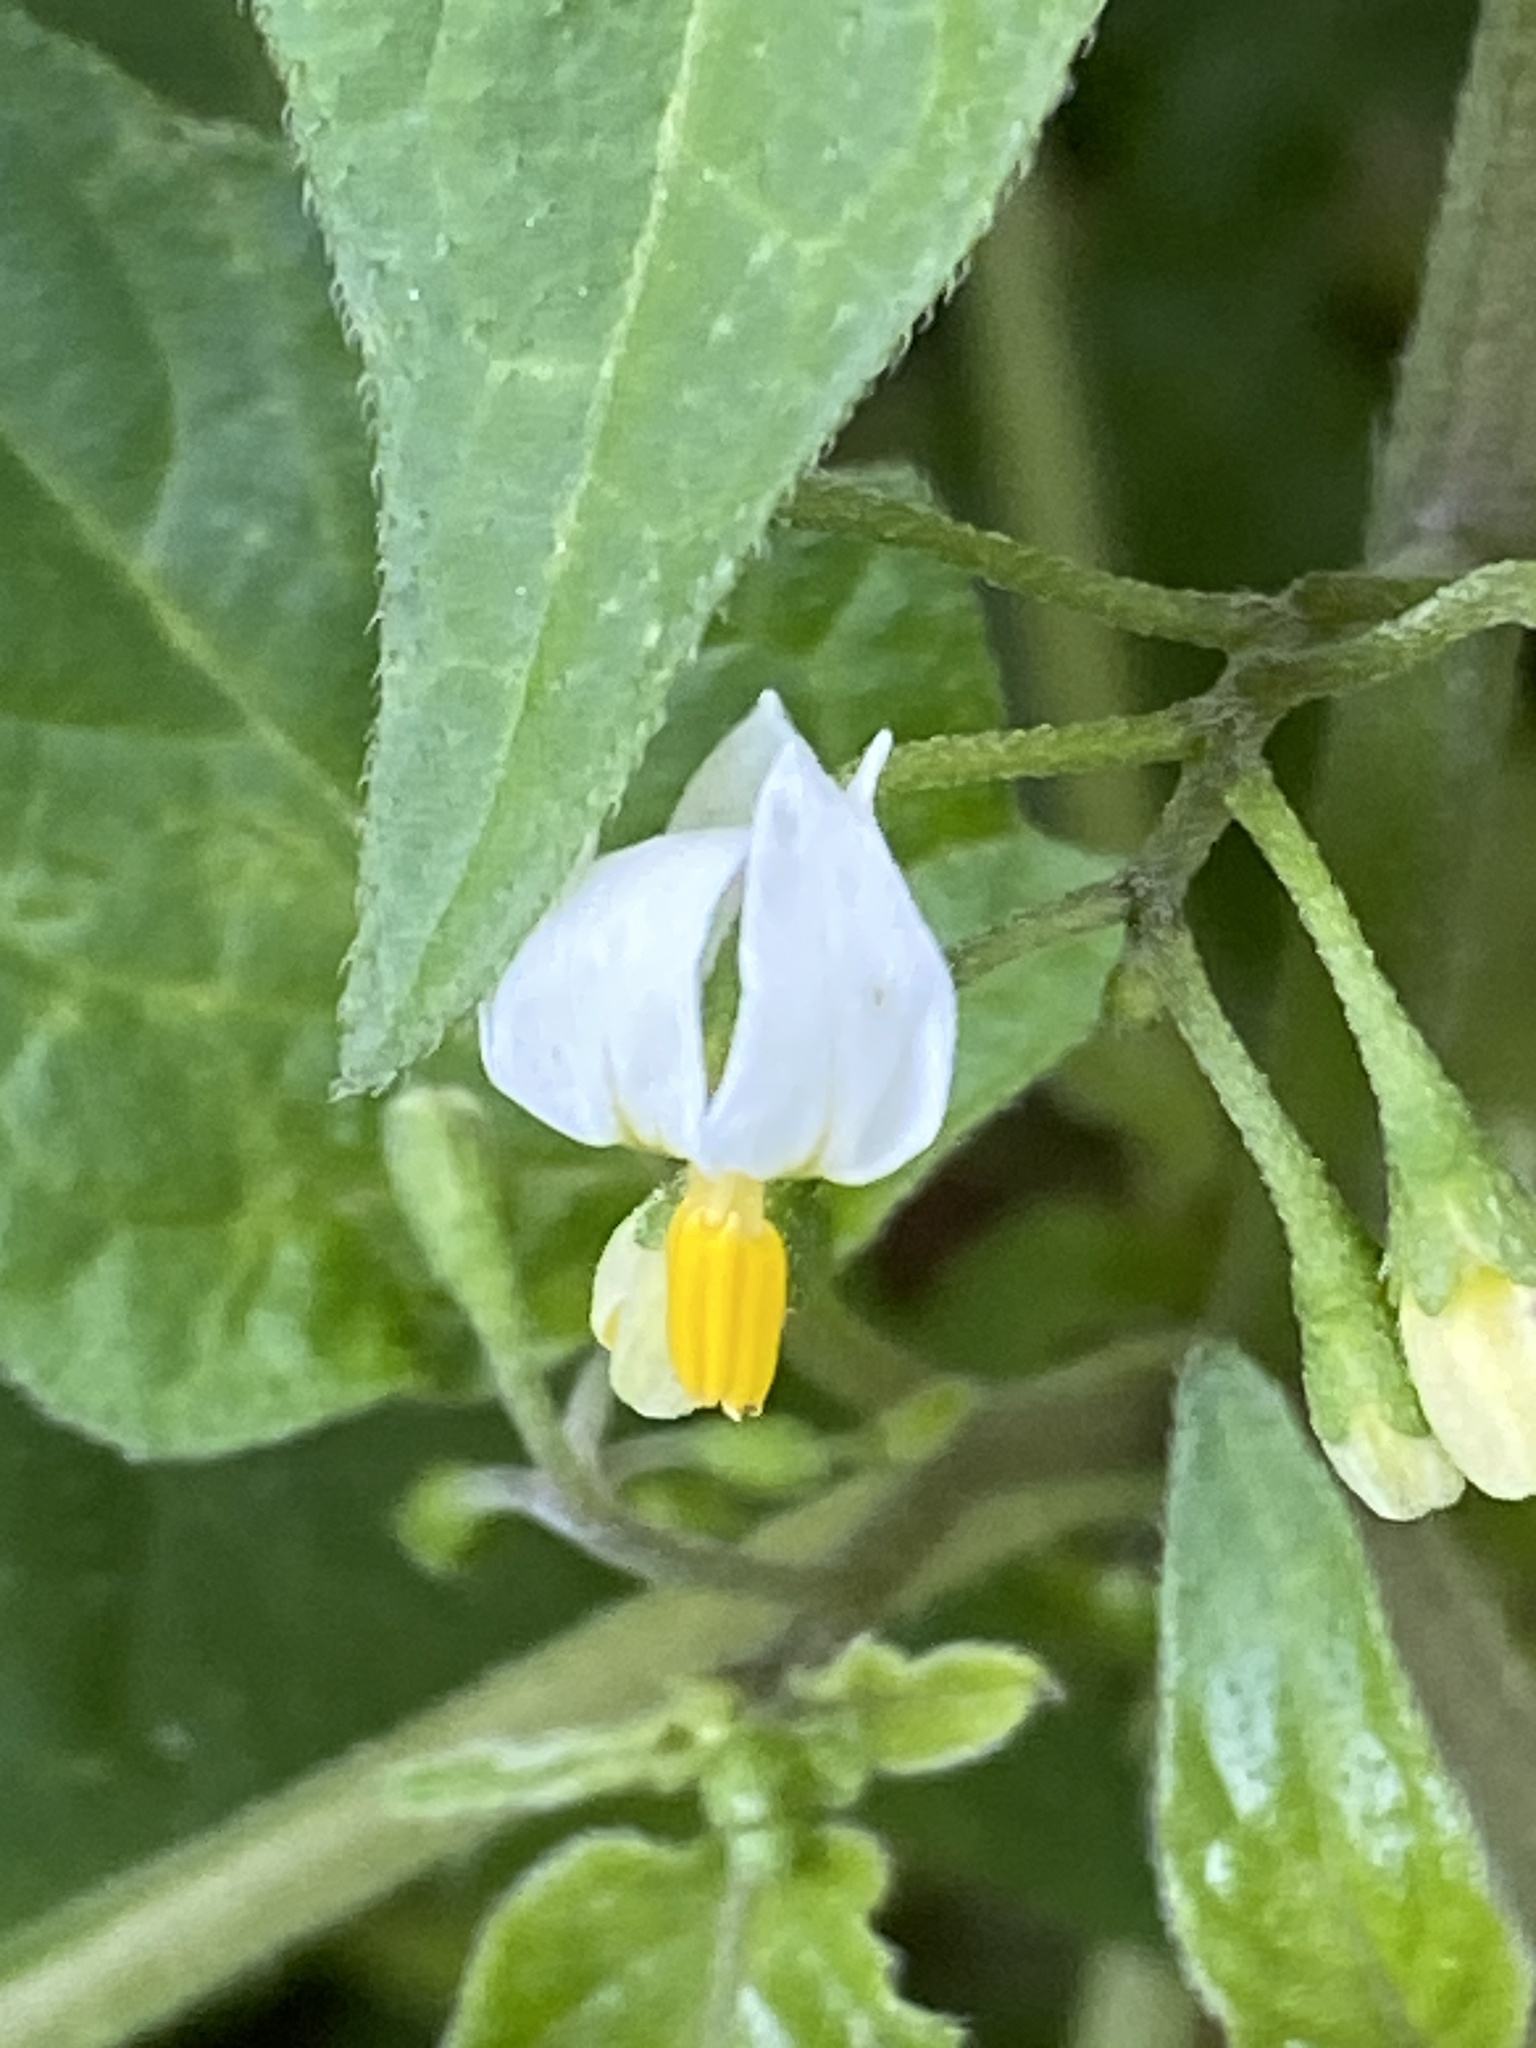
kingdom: Plantae
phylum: Tracheophyta
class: Magnoliopsida
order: Solanales
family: Solanaceae
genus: Solanum
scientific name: Solanum nigrum
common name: Black nightshade
